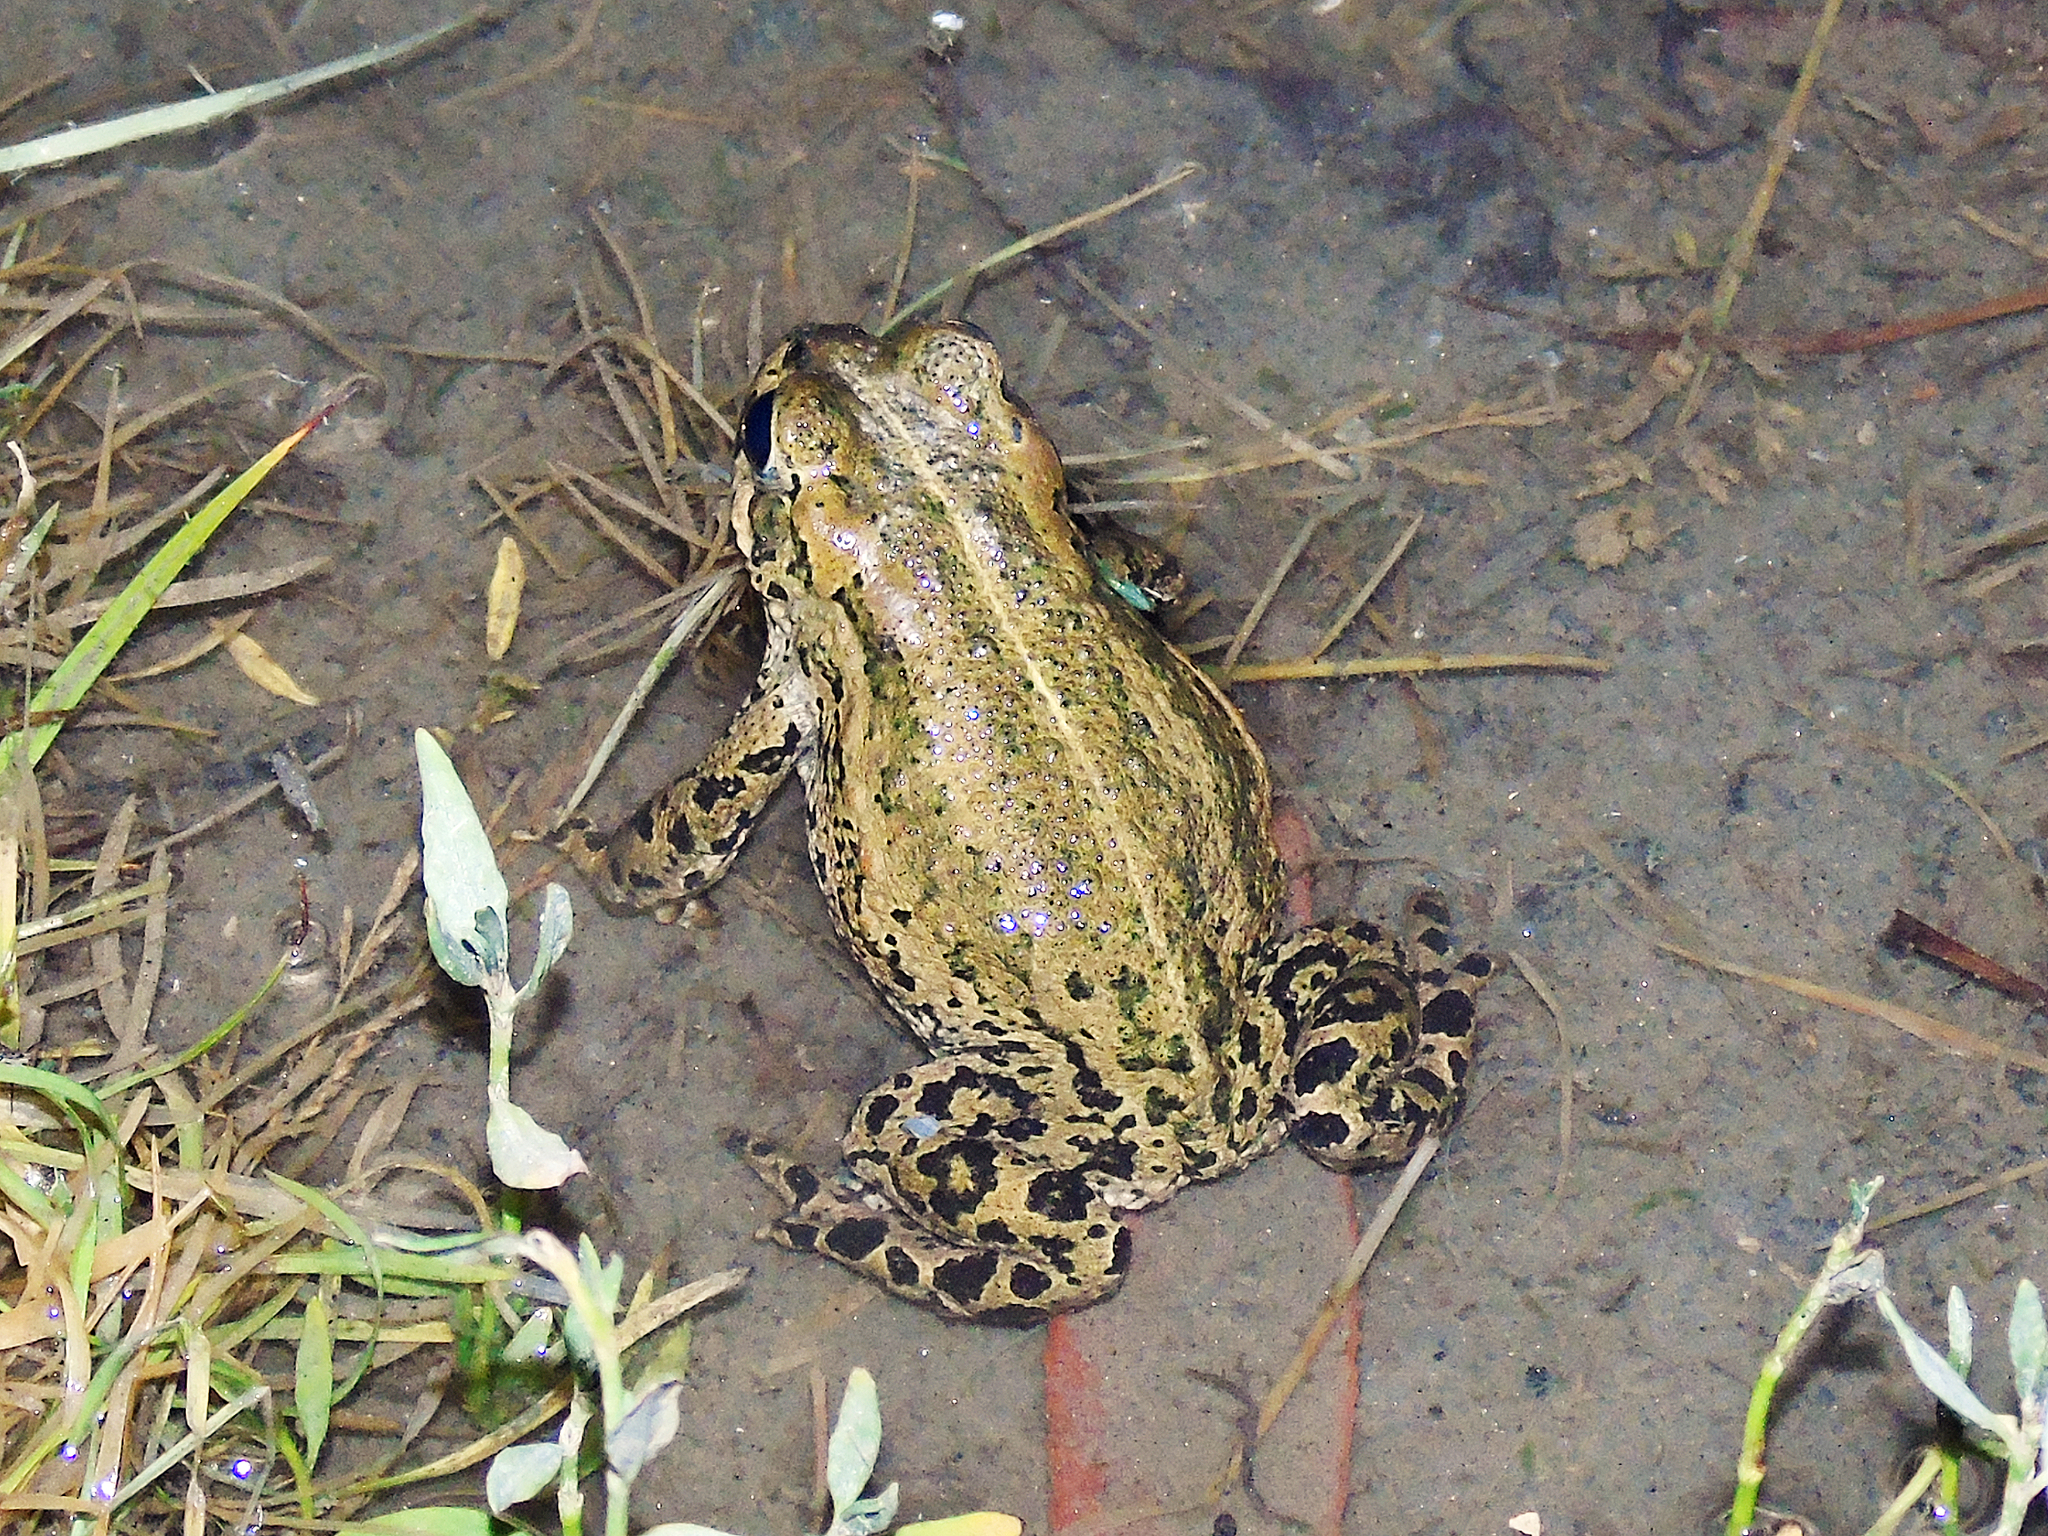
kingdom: Animalia
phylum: Chordata
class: Amphibia
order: Anura
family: Bufonidae
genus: Bufotes
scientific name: Bufotes latastii
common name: Ladakh toad
